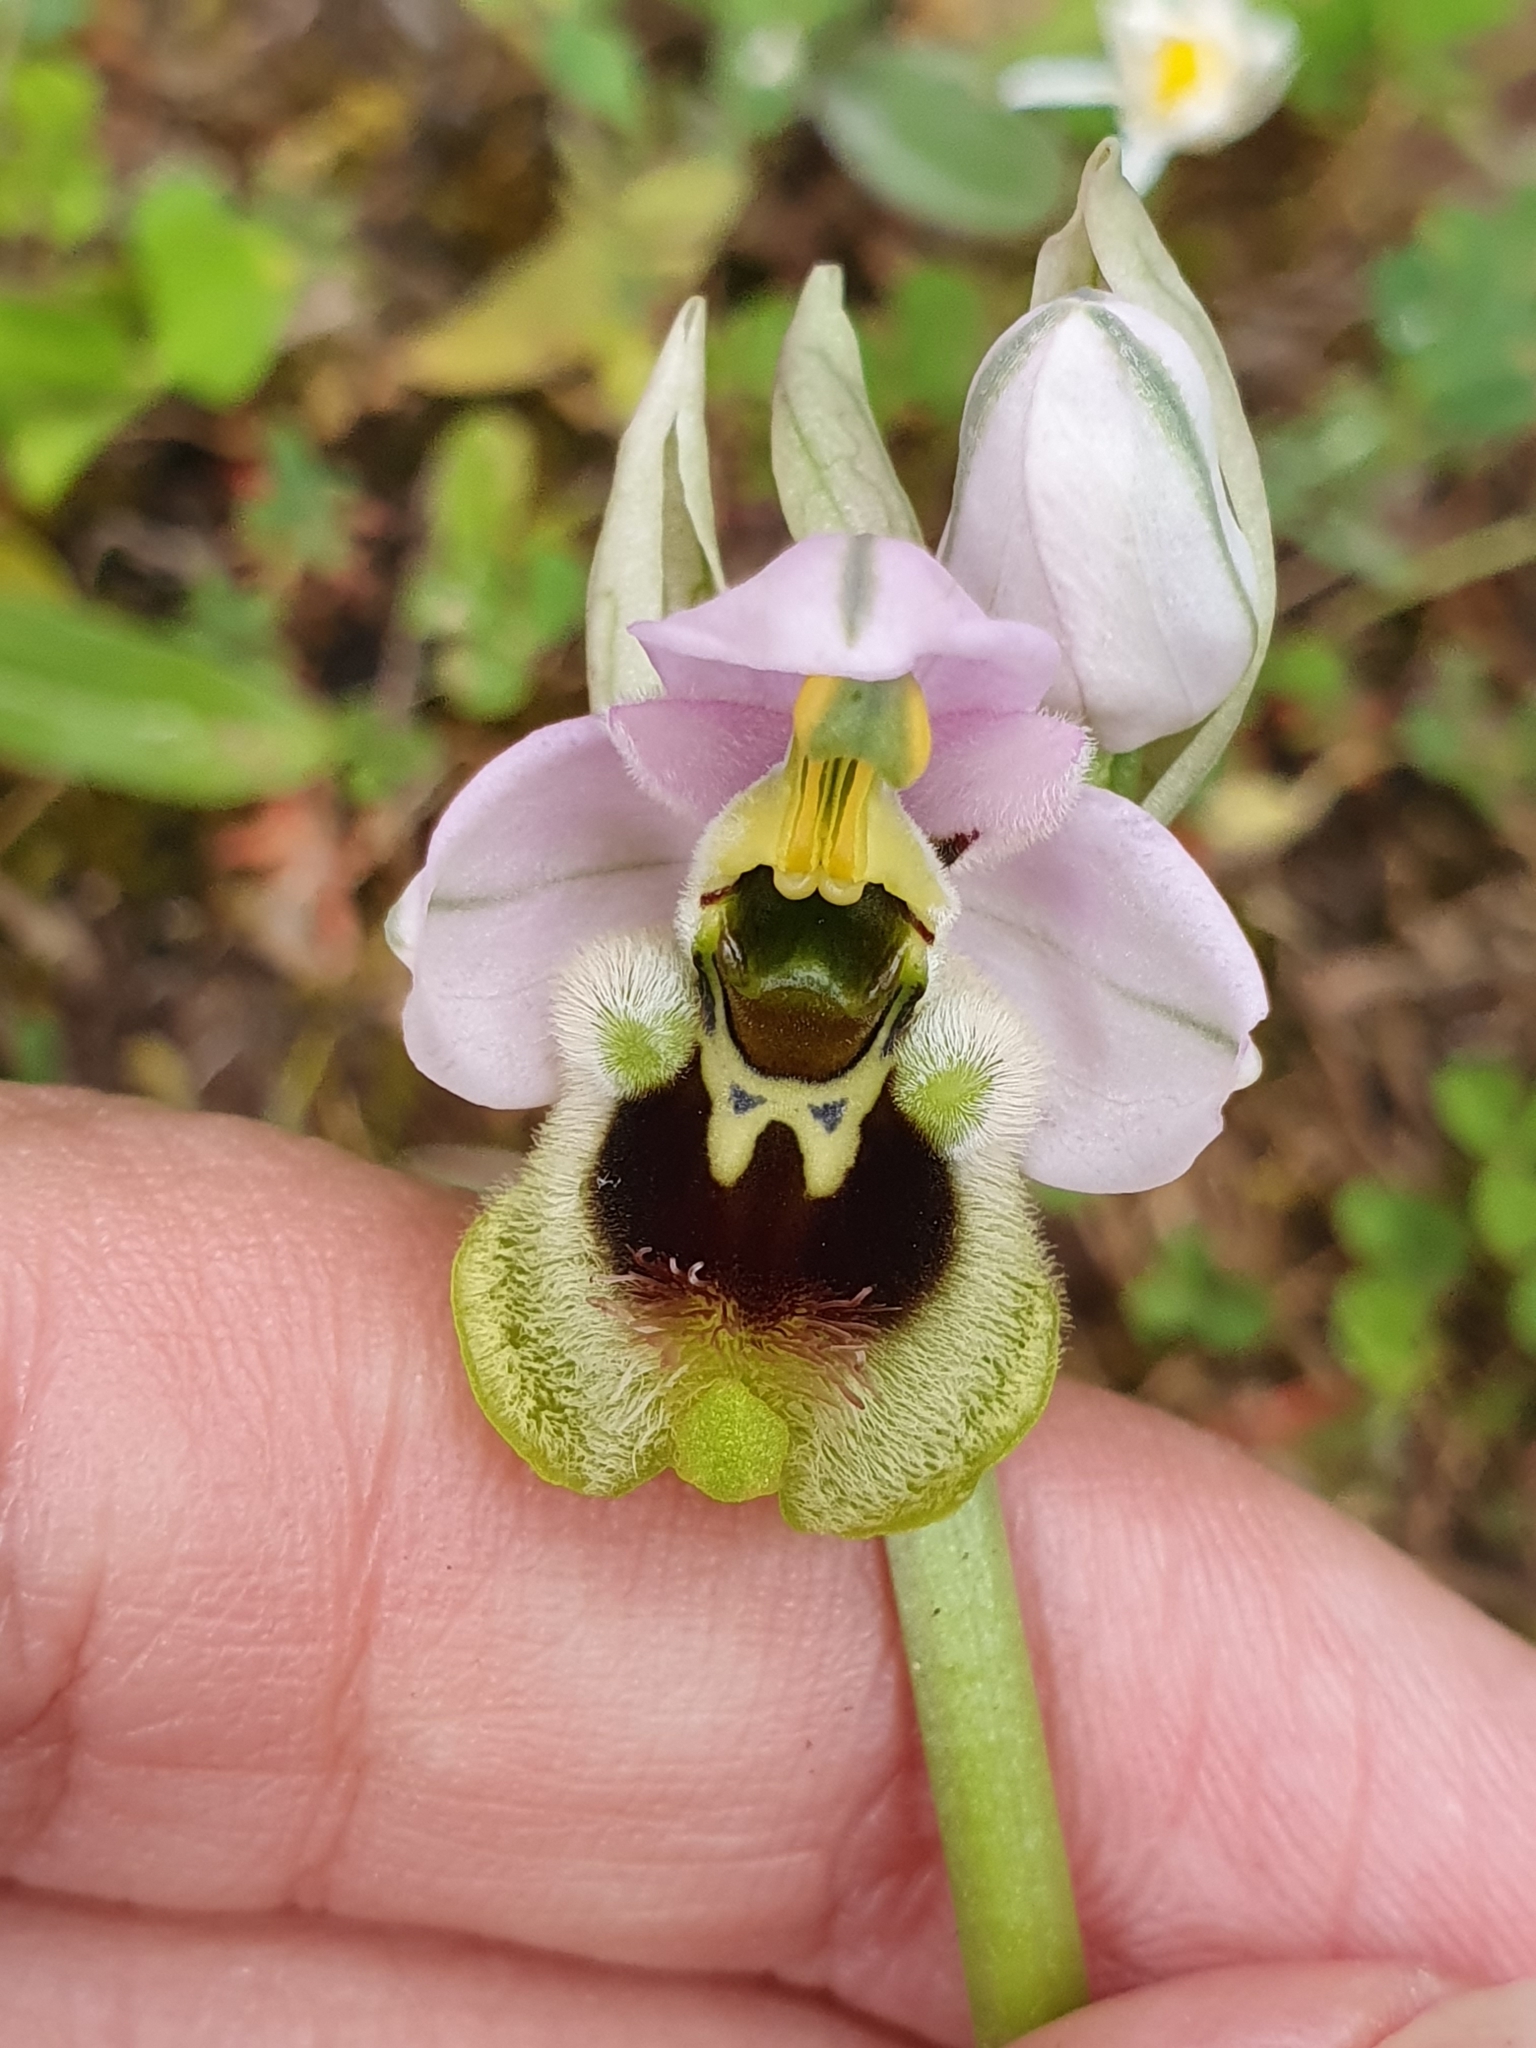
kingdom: Plantae
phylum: Tracheophyta
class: Liliopsida
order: Asparagales
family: Orchidaceae
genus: Ophrys
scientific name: Ophrys tenthredinifera
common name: Sawfly orchid
